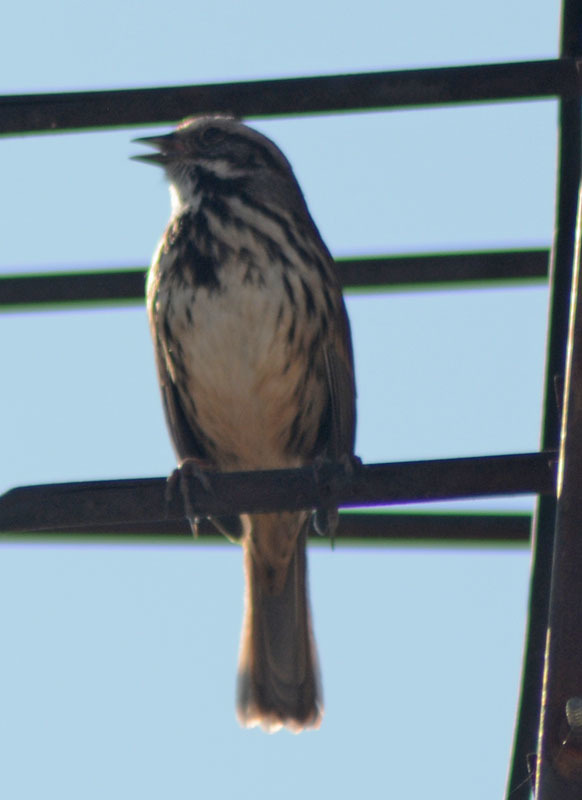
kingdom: Animalia
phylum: Chordata
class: Aves
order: Passeriformes
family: Passerellidae
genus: Melospiza
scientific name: Melospiza melodia
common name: Song sparrow
